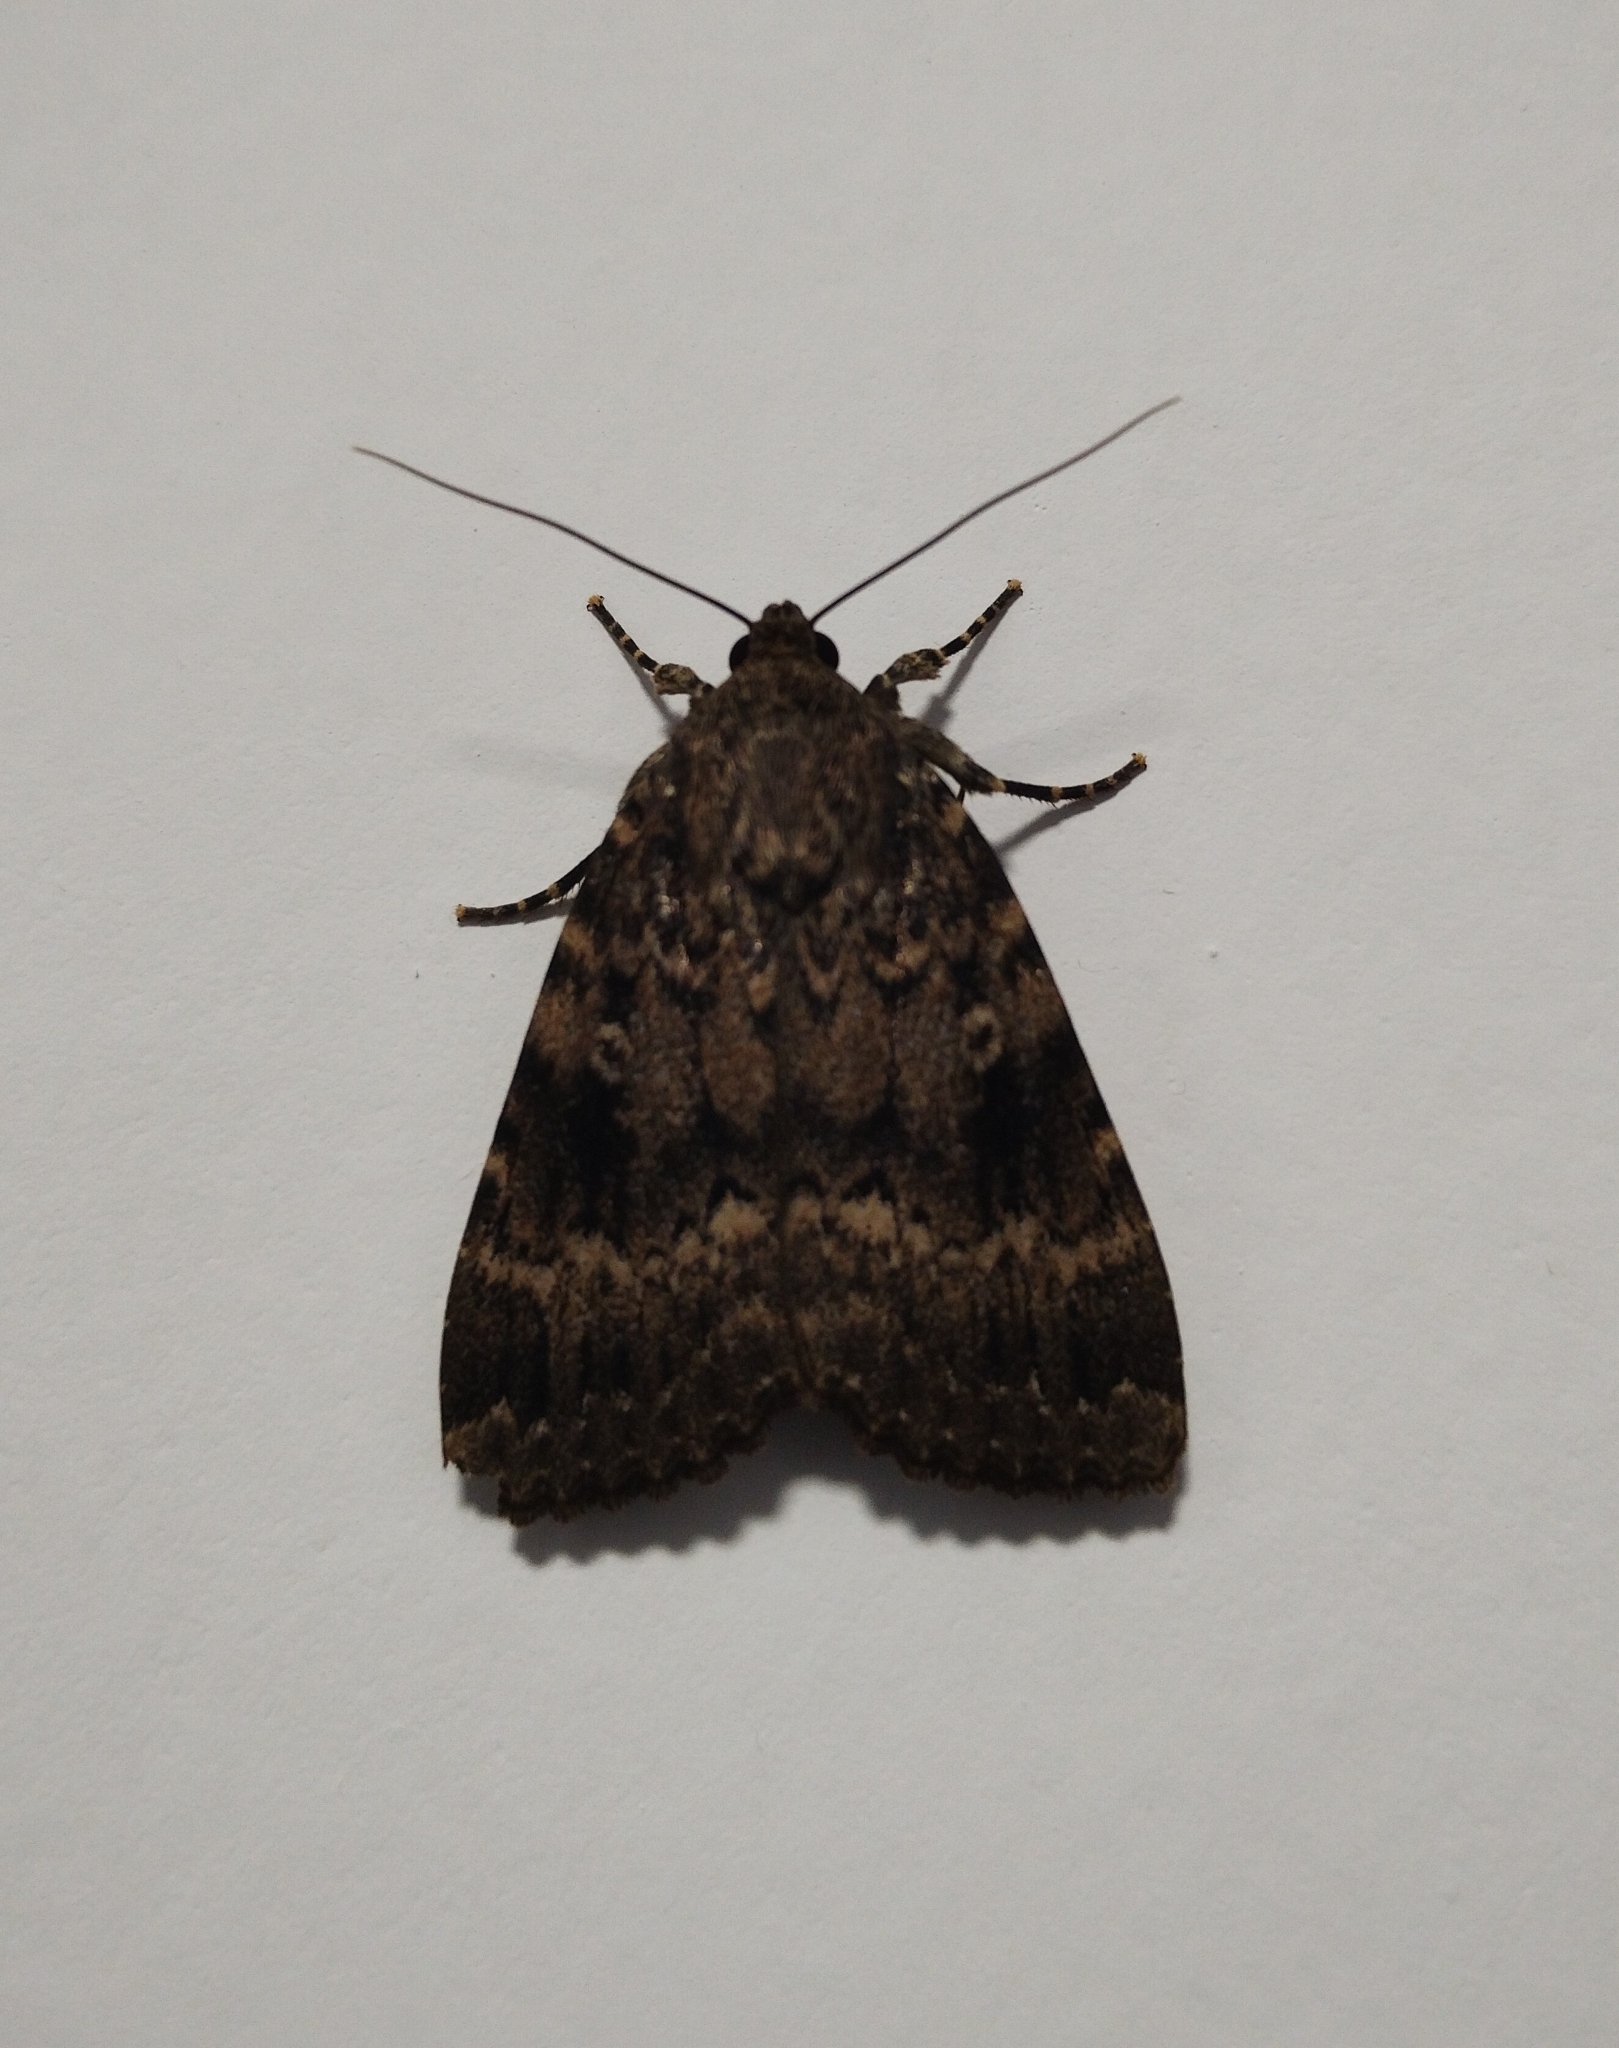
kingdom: Animalia
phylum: Arthropoda
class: Insecta
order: Lepidoptera
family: Noctuidae
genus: Amphipyra
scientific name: Amphipyra berbera
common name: Svensson's copper underwing
